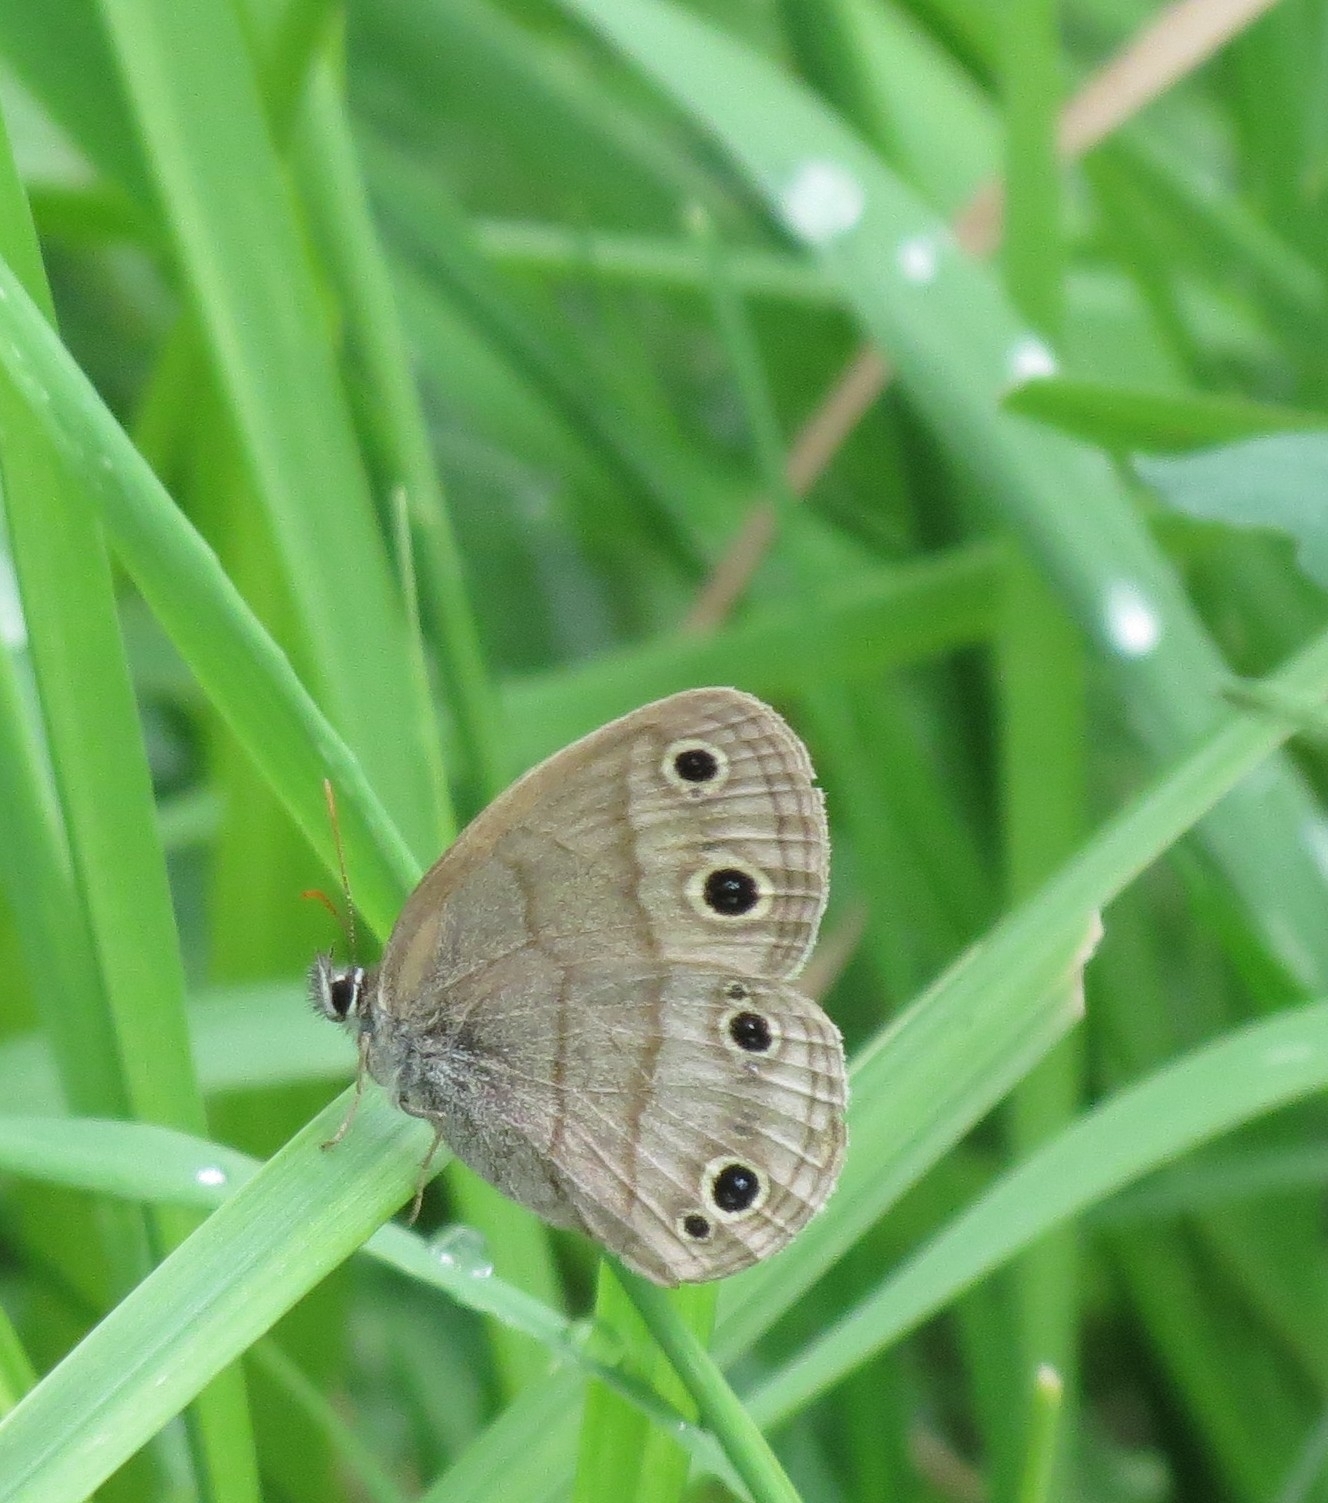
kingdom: Animalia
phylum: Arthropoda
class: Insecta
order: Lepidoptera
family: Nymphalidae
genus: Euptychia
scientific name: Euptychia cymela
